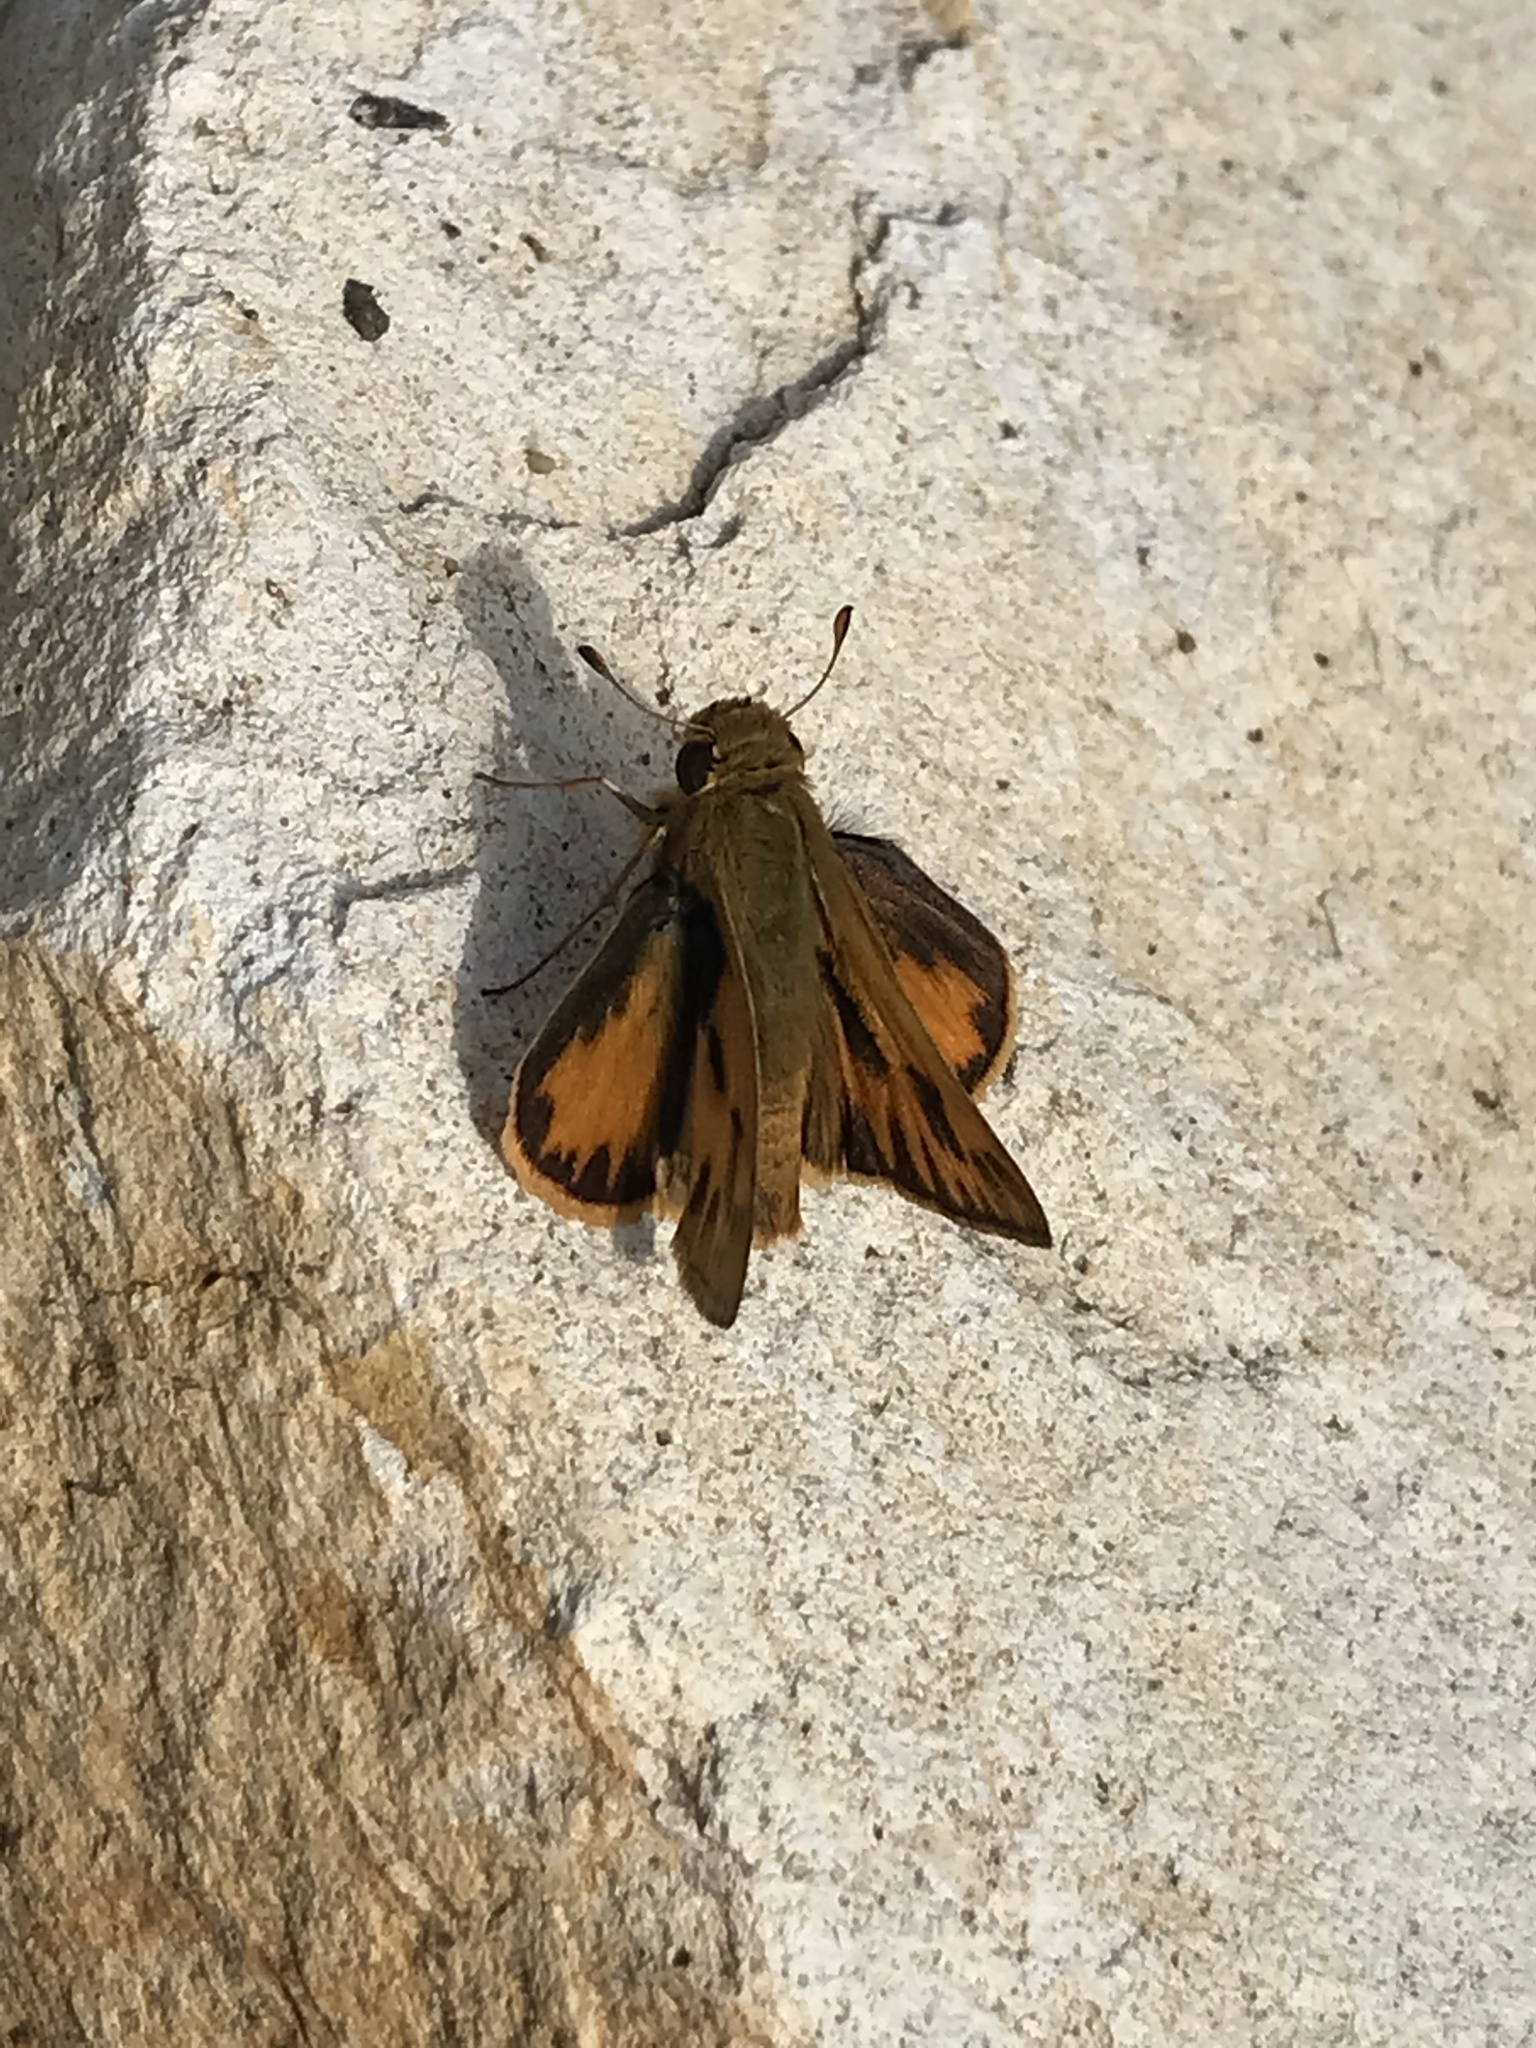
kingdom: Animalia
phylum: Arthropoda
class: Insecta
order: Lepidoptera
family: Hesperiidae
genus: Hylephila
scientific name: Hylephila phyleus
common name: Fiery skipper
